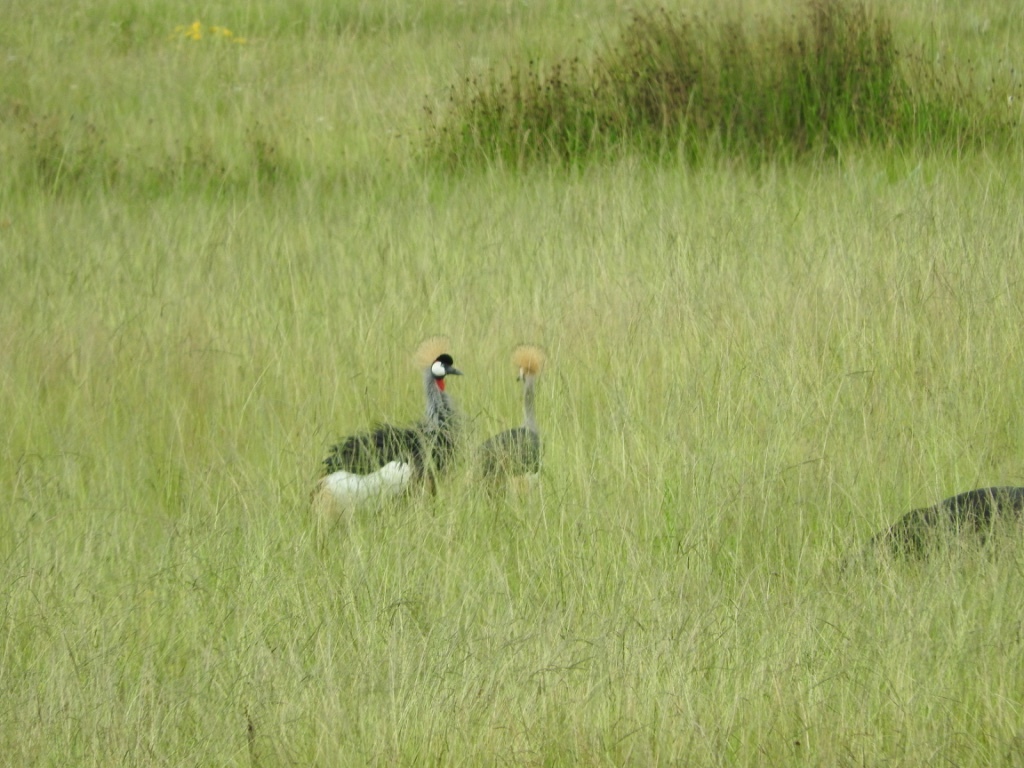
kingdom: Animalia
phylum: Chordata
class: Aves
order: Gruiformes
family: Gruidae
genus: Balearica
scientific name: Balearica regulorum
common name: Grey crowned crane
